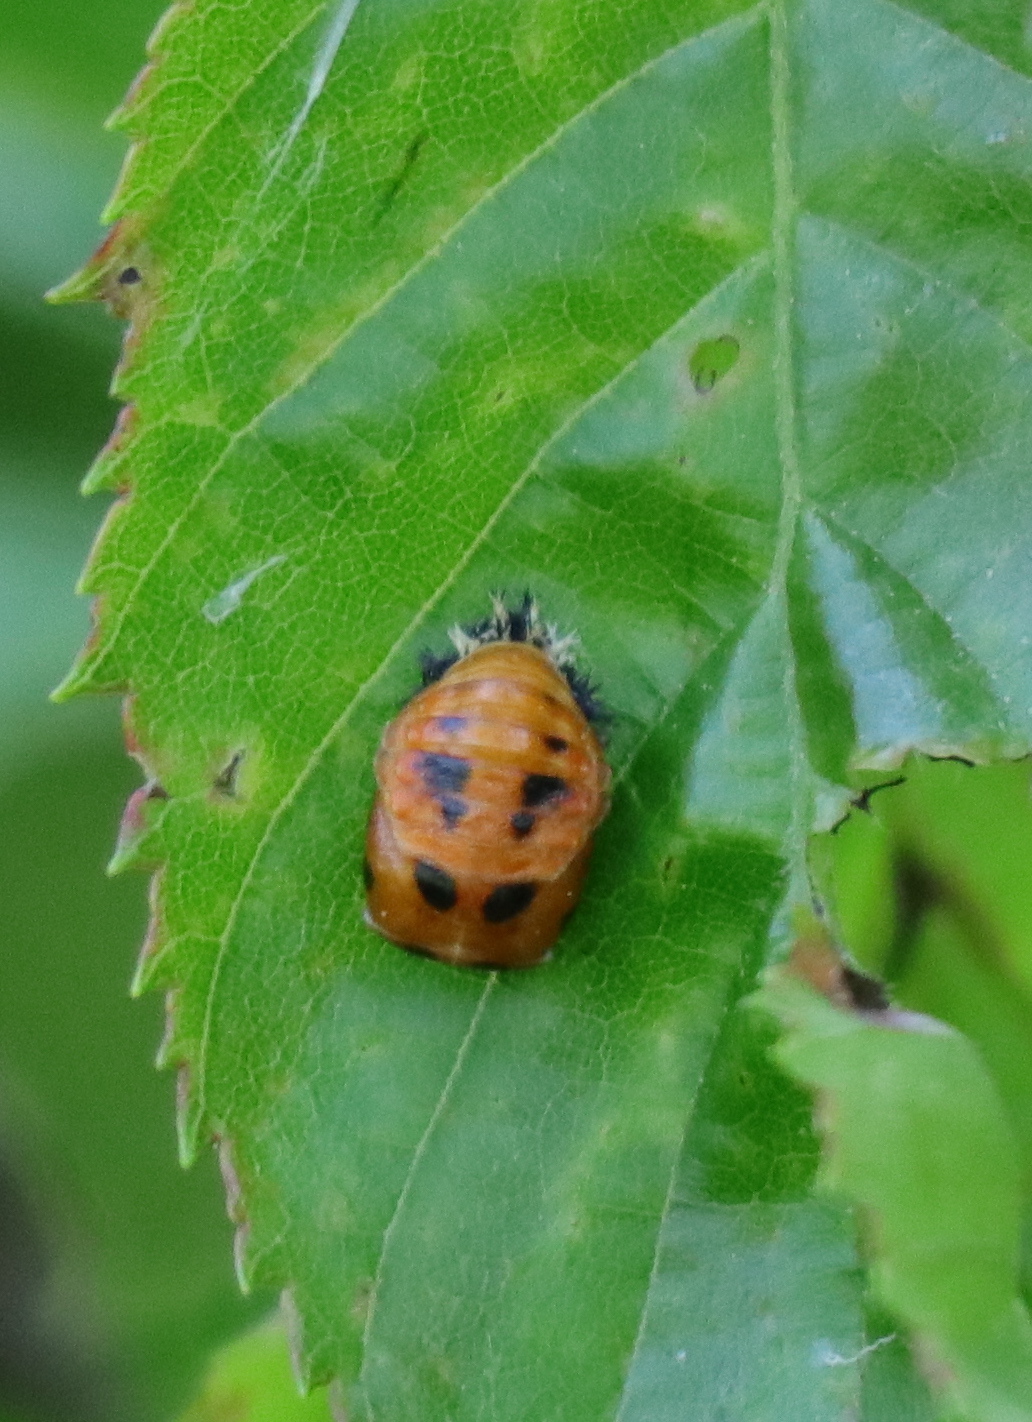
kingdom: Animalia
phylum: Arthropoda
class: Insecta
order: Coleoptera
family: Coccinellidae
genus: Harmonia
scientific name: Harmonia axyridis
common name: Harlequin ladybird
